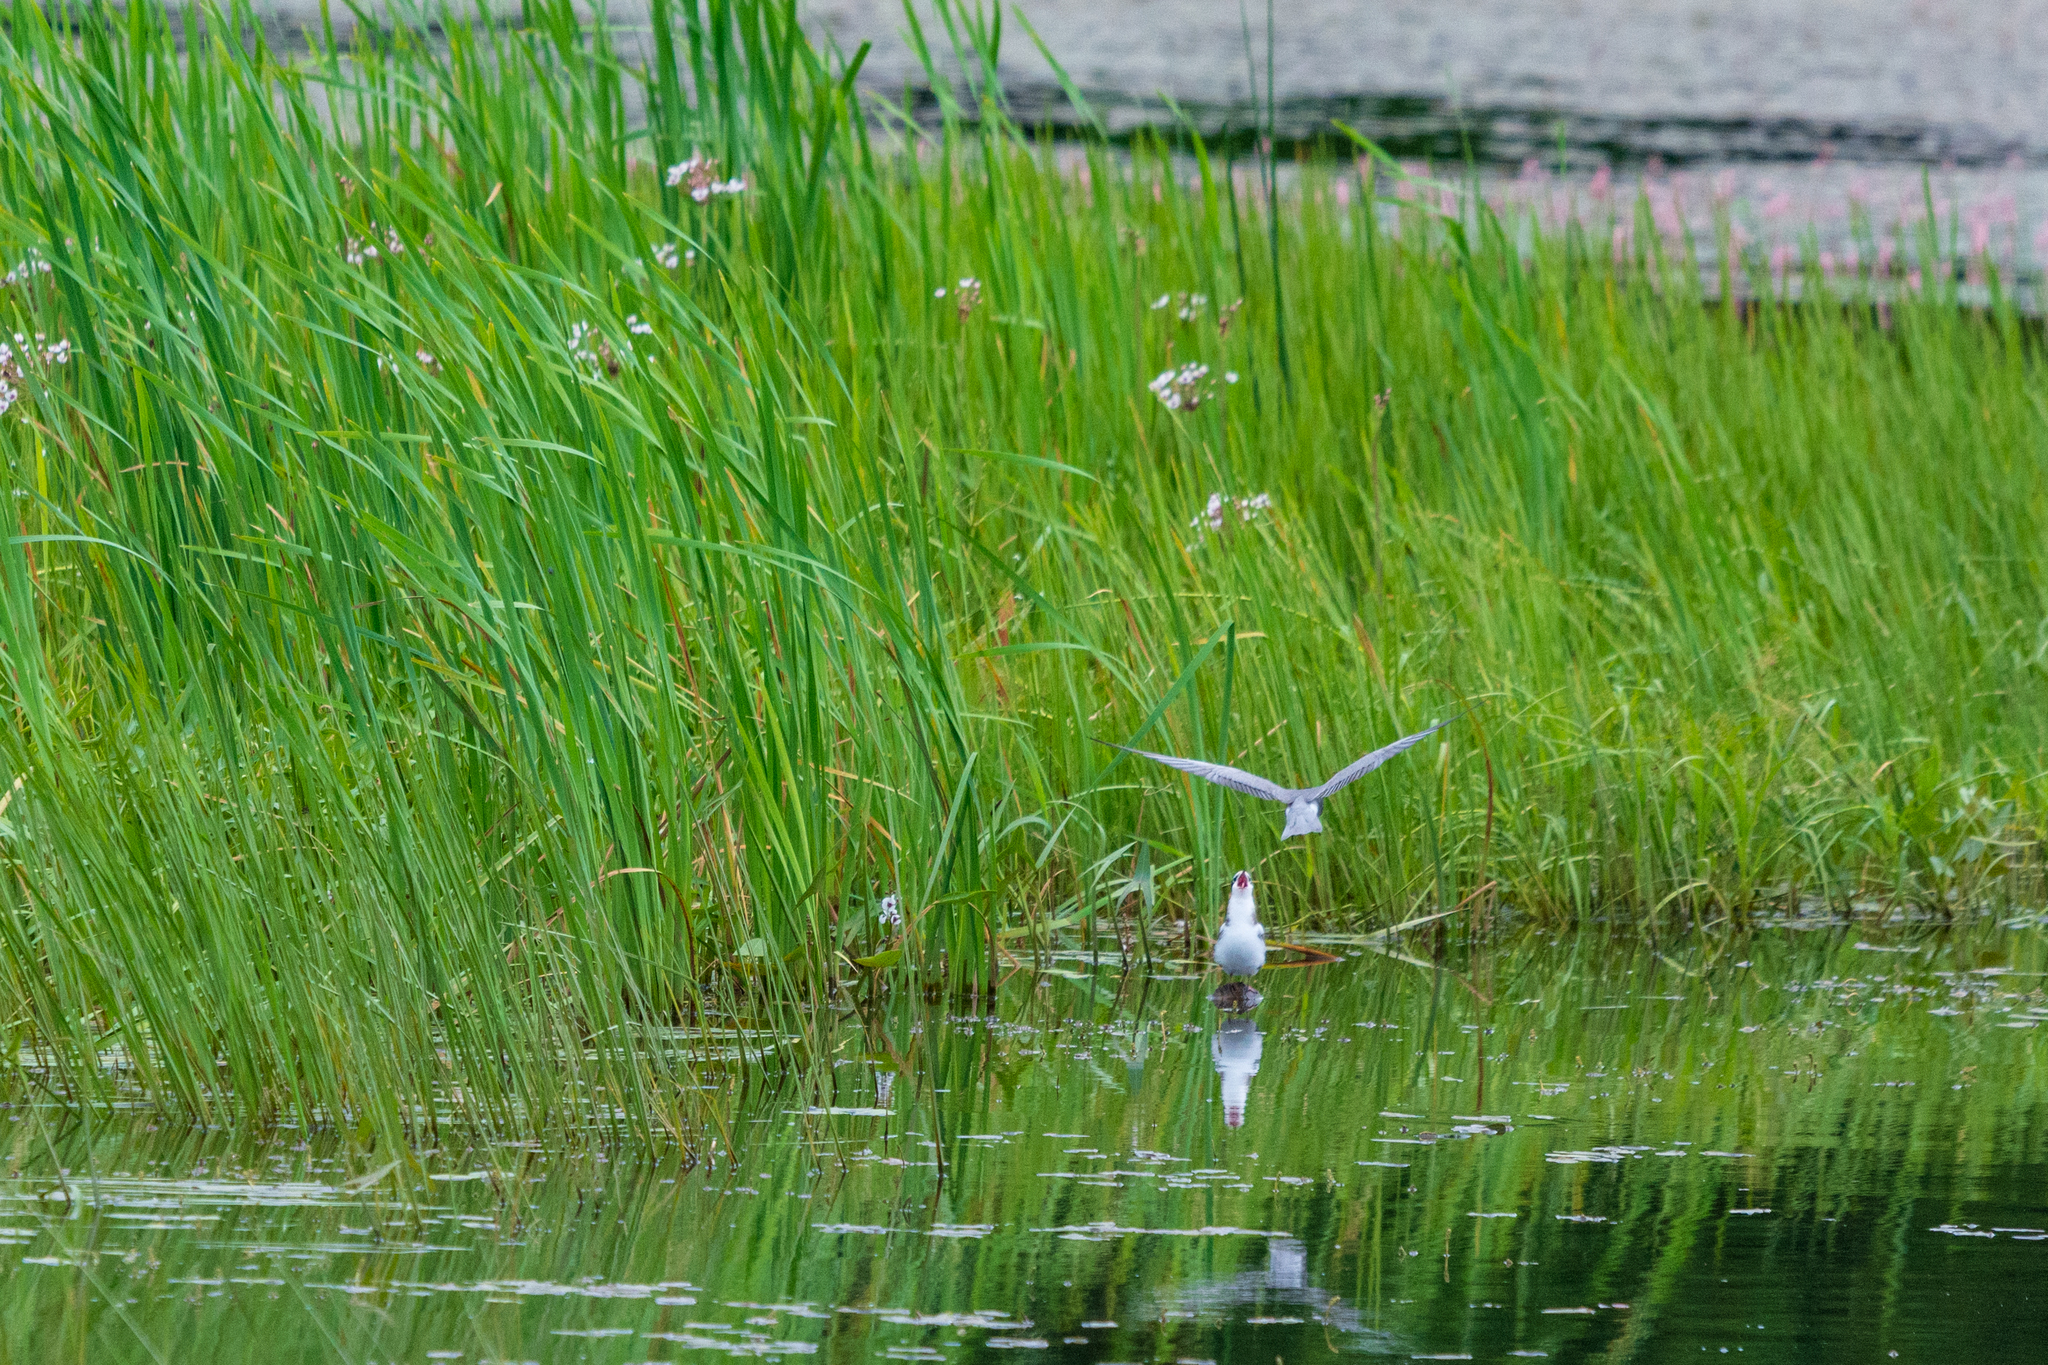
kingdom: Animalia
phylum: Chordata
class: Aves
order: Charadriiformes
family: Laridae
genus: Chlidonias
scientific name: Chlidonias niger
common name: Black tern
